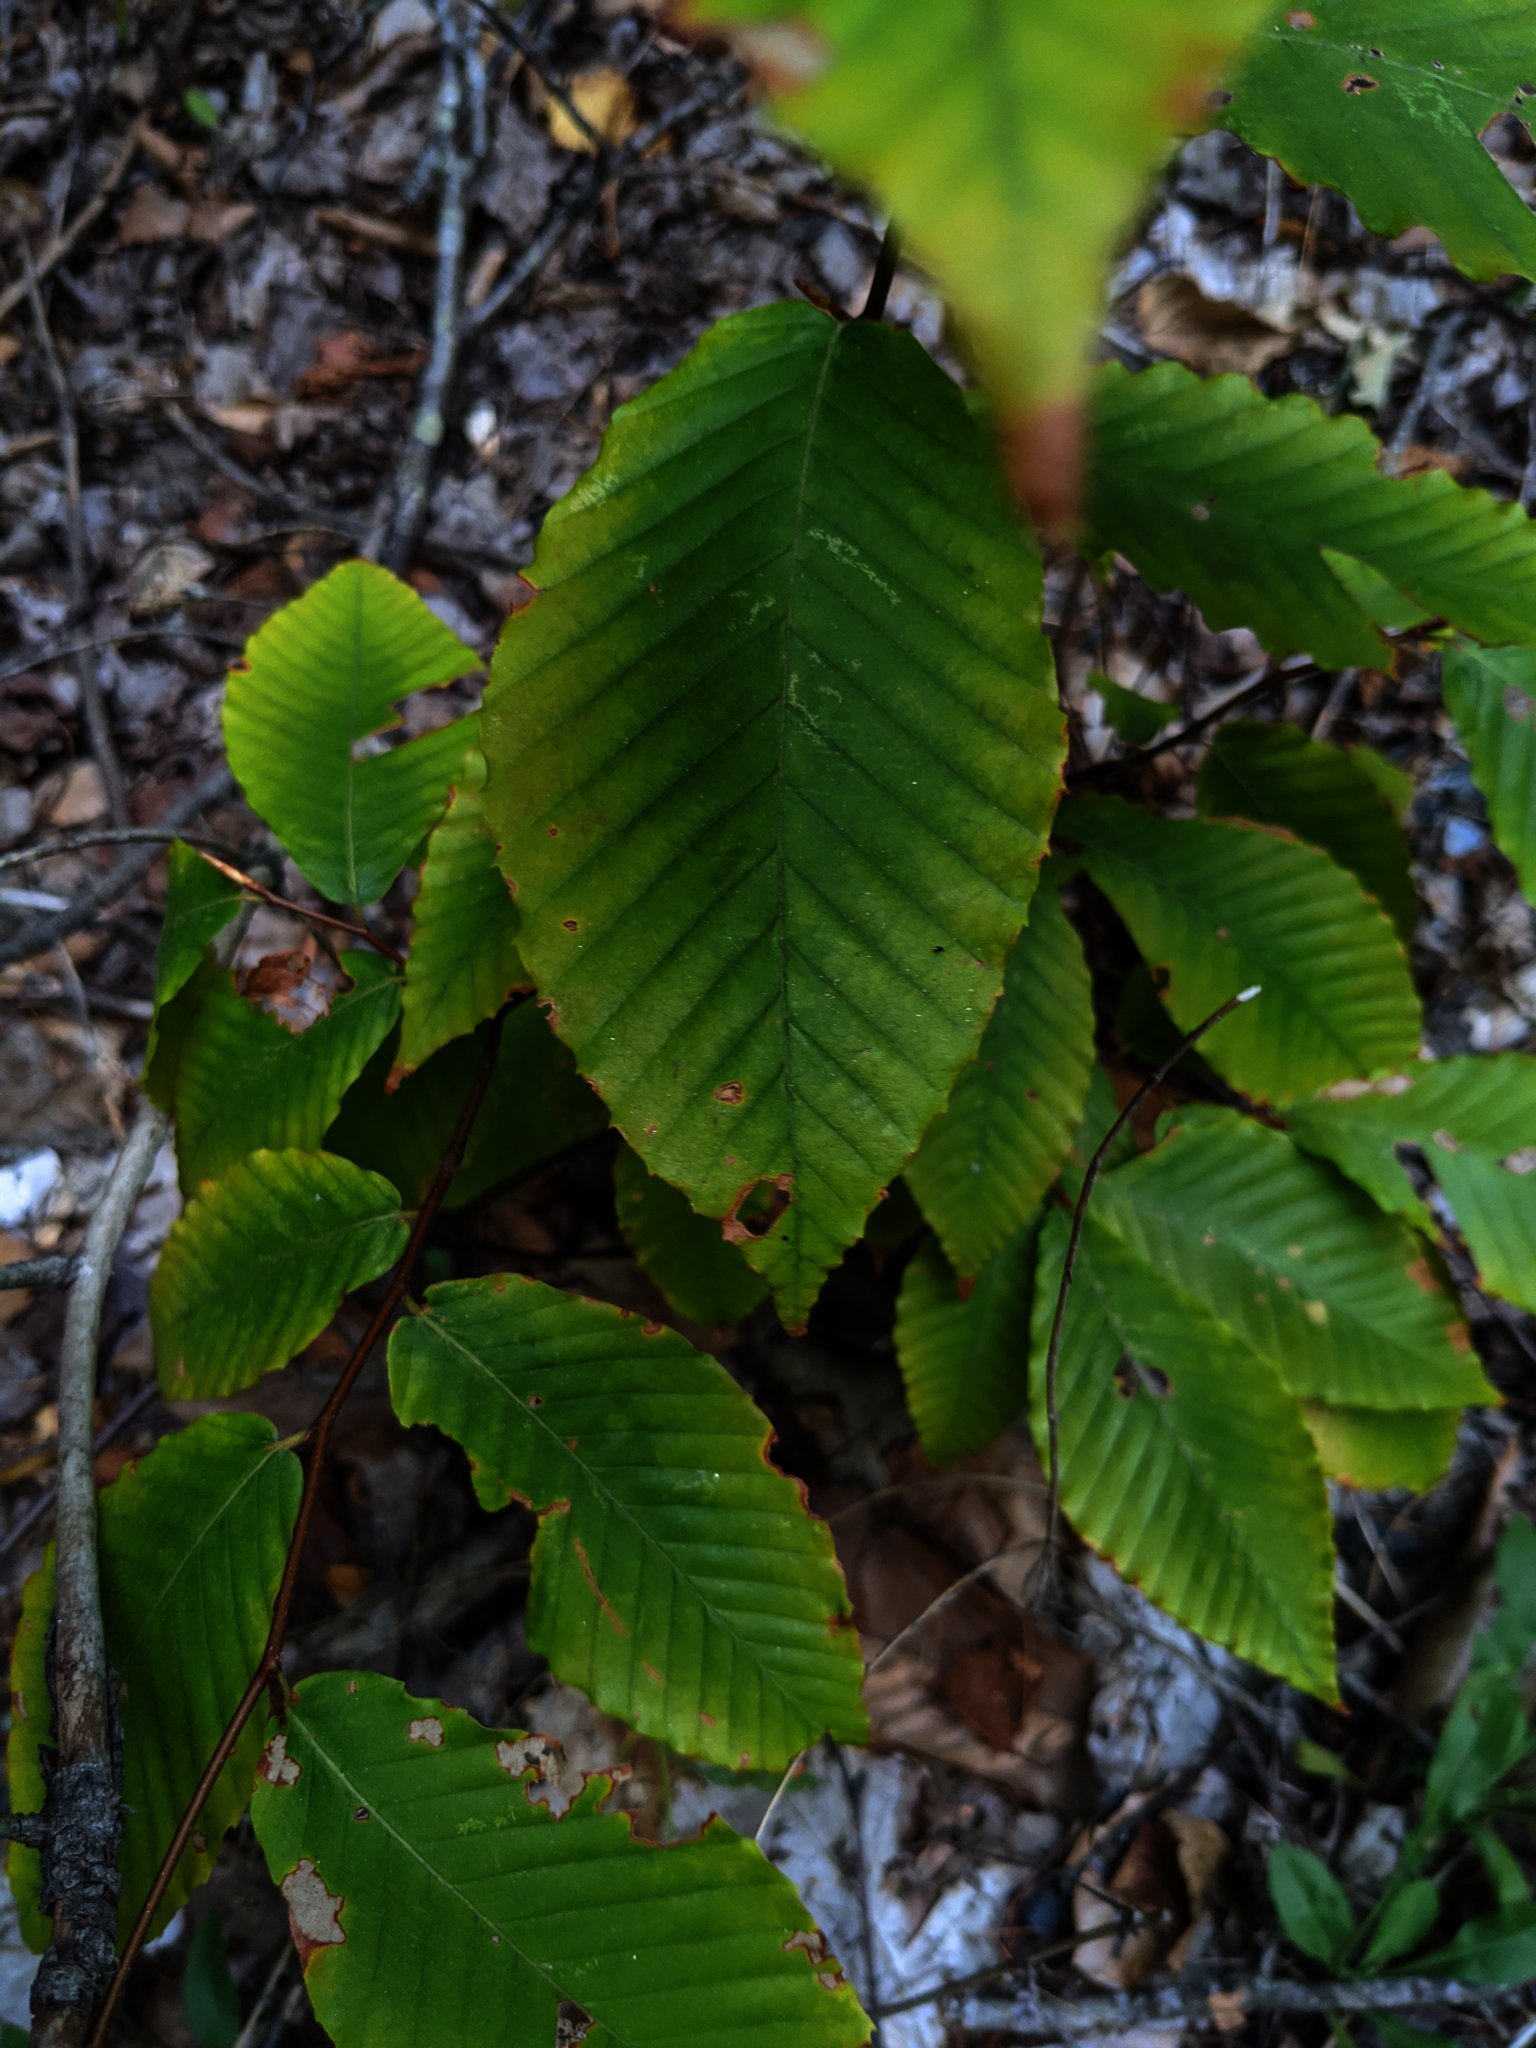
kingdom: Plantae
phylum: Tracheophyta
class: Magnoliopsida
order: Fagales
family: Fagaceae
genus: Fagus
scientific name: Fagus grandifolia
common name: American beech
